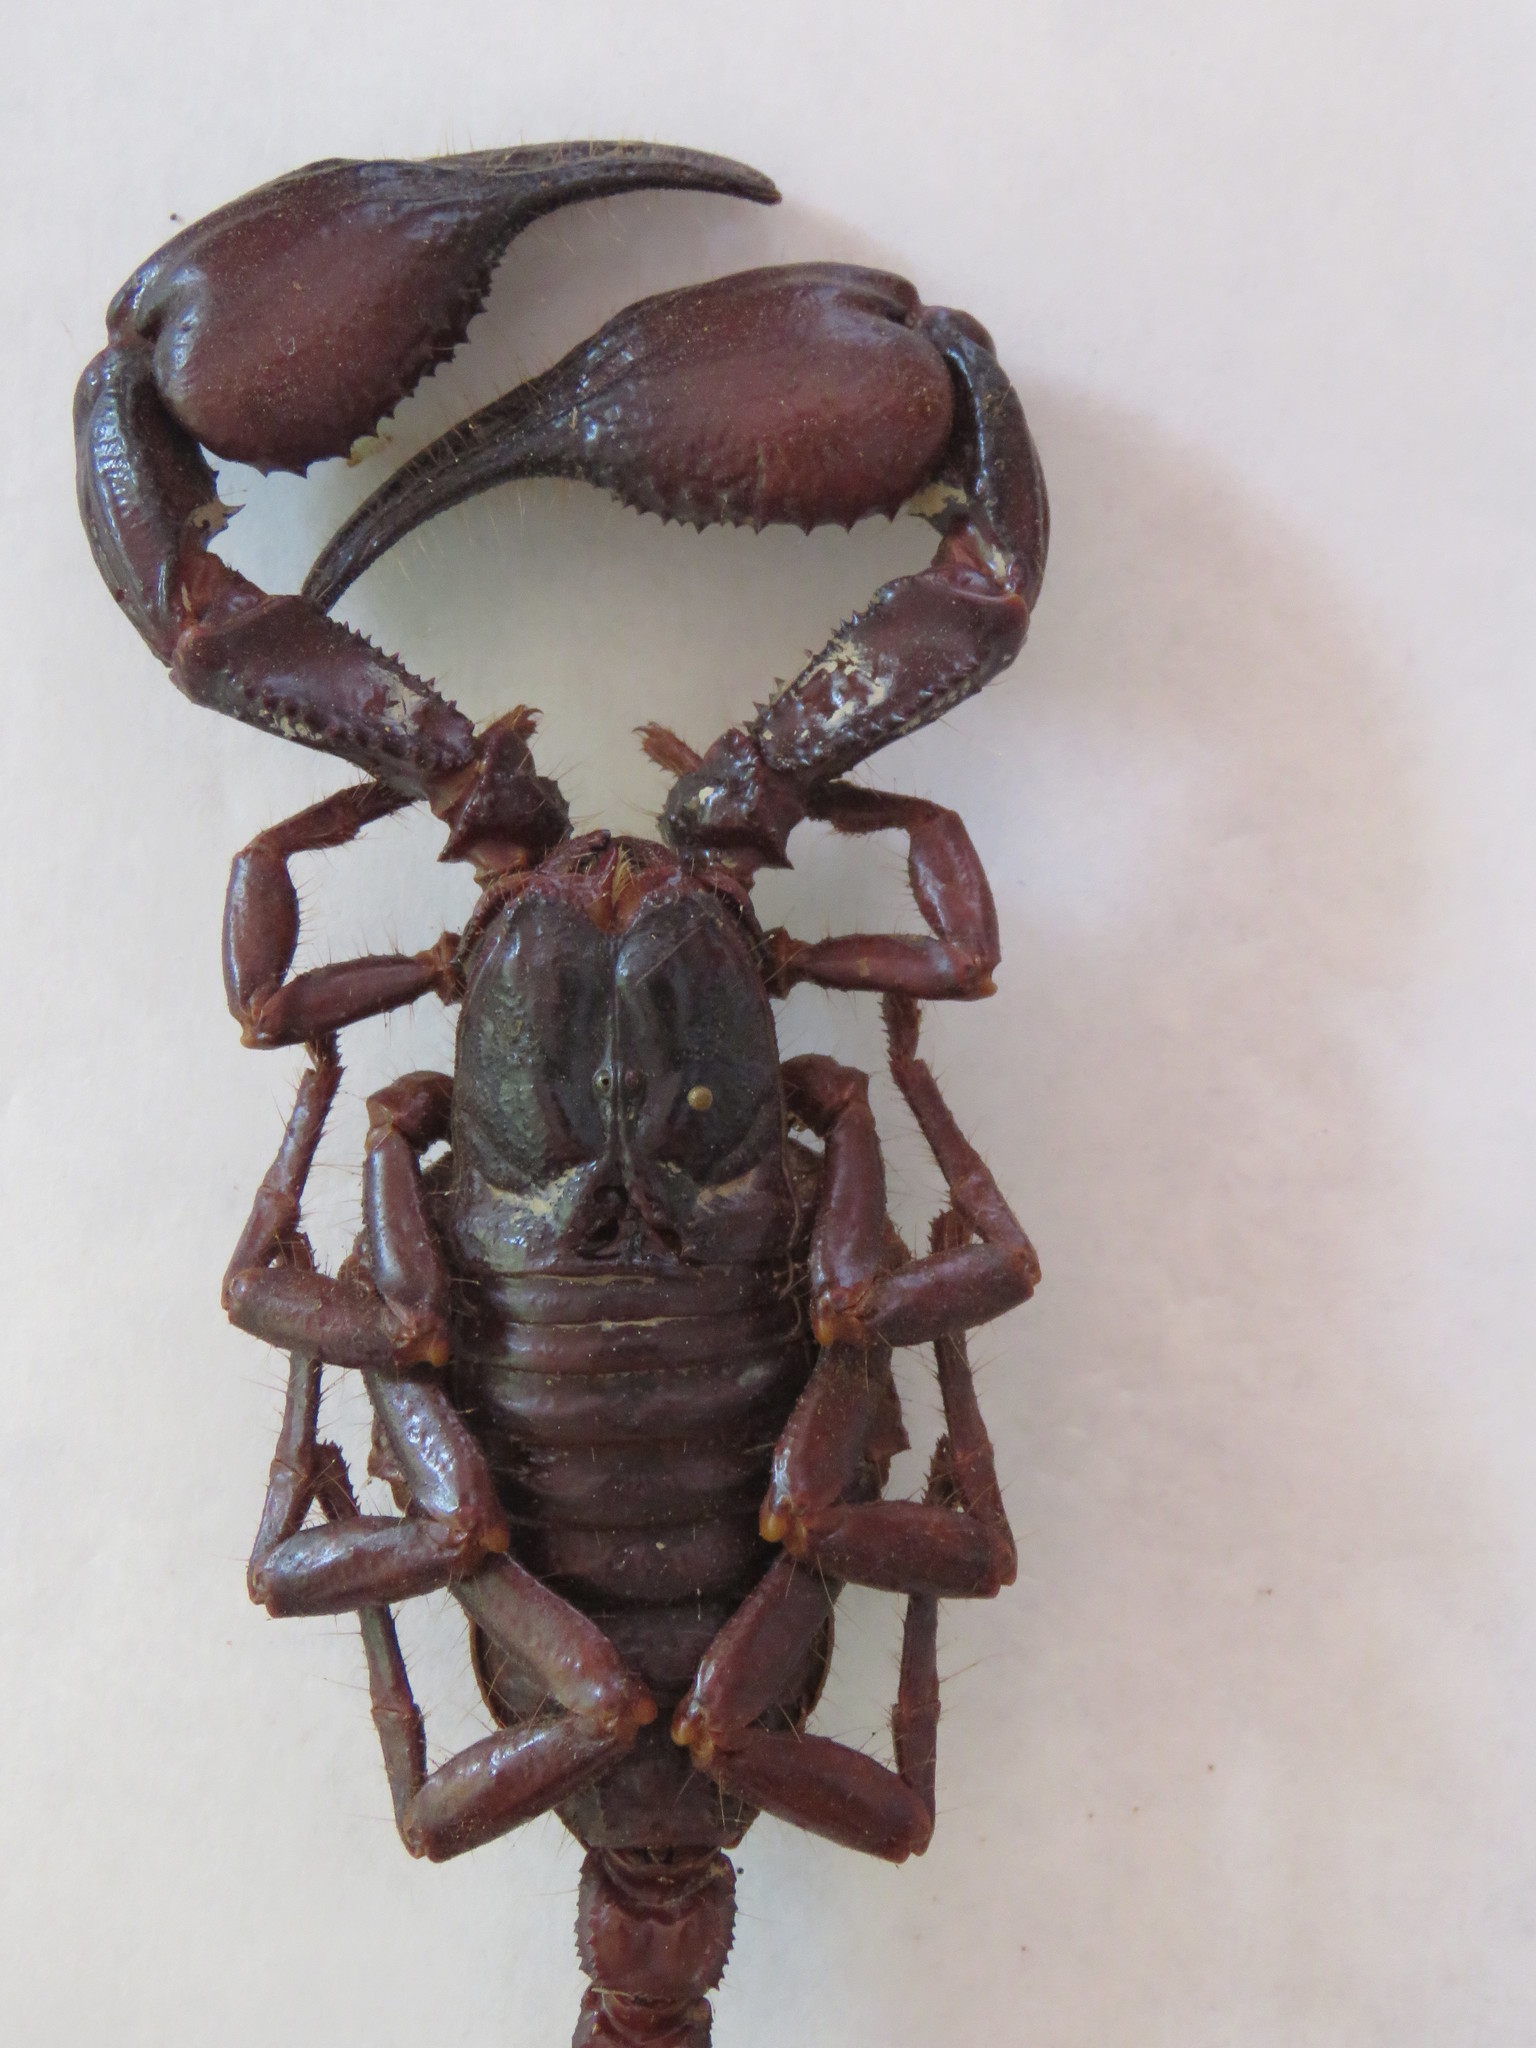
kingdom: Animalia
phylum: Arthropoda
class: Arachnida
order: Scorpiones
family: Scorpionidae
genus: Heterometrus
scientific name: Heterometrus spinifer
